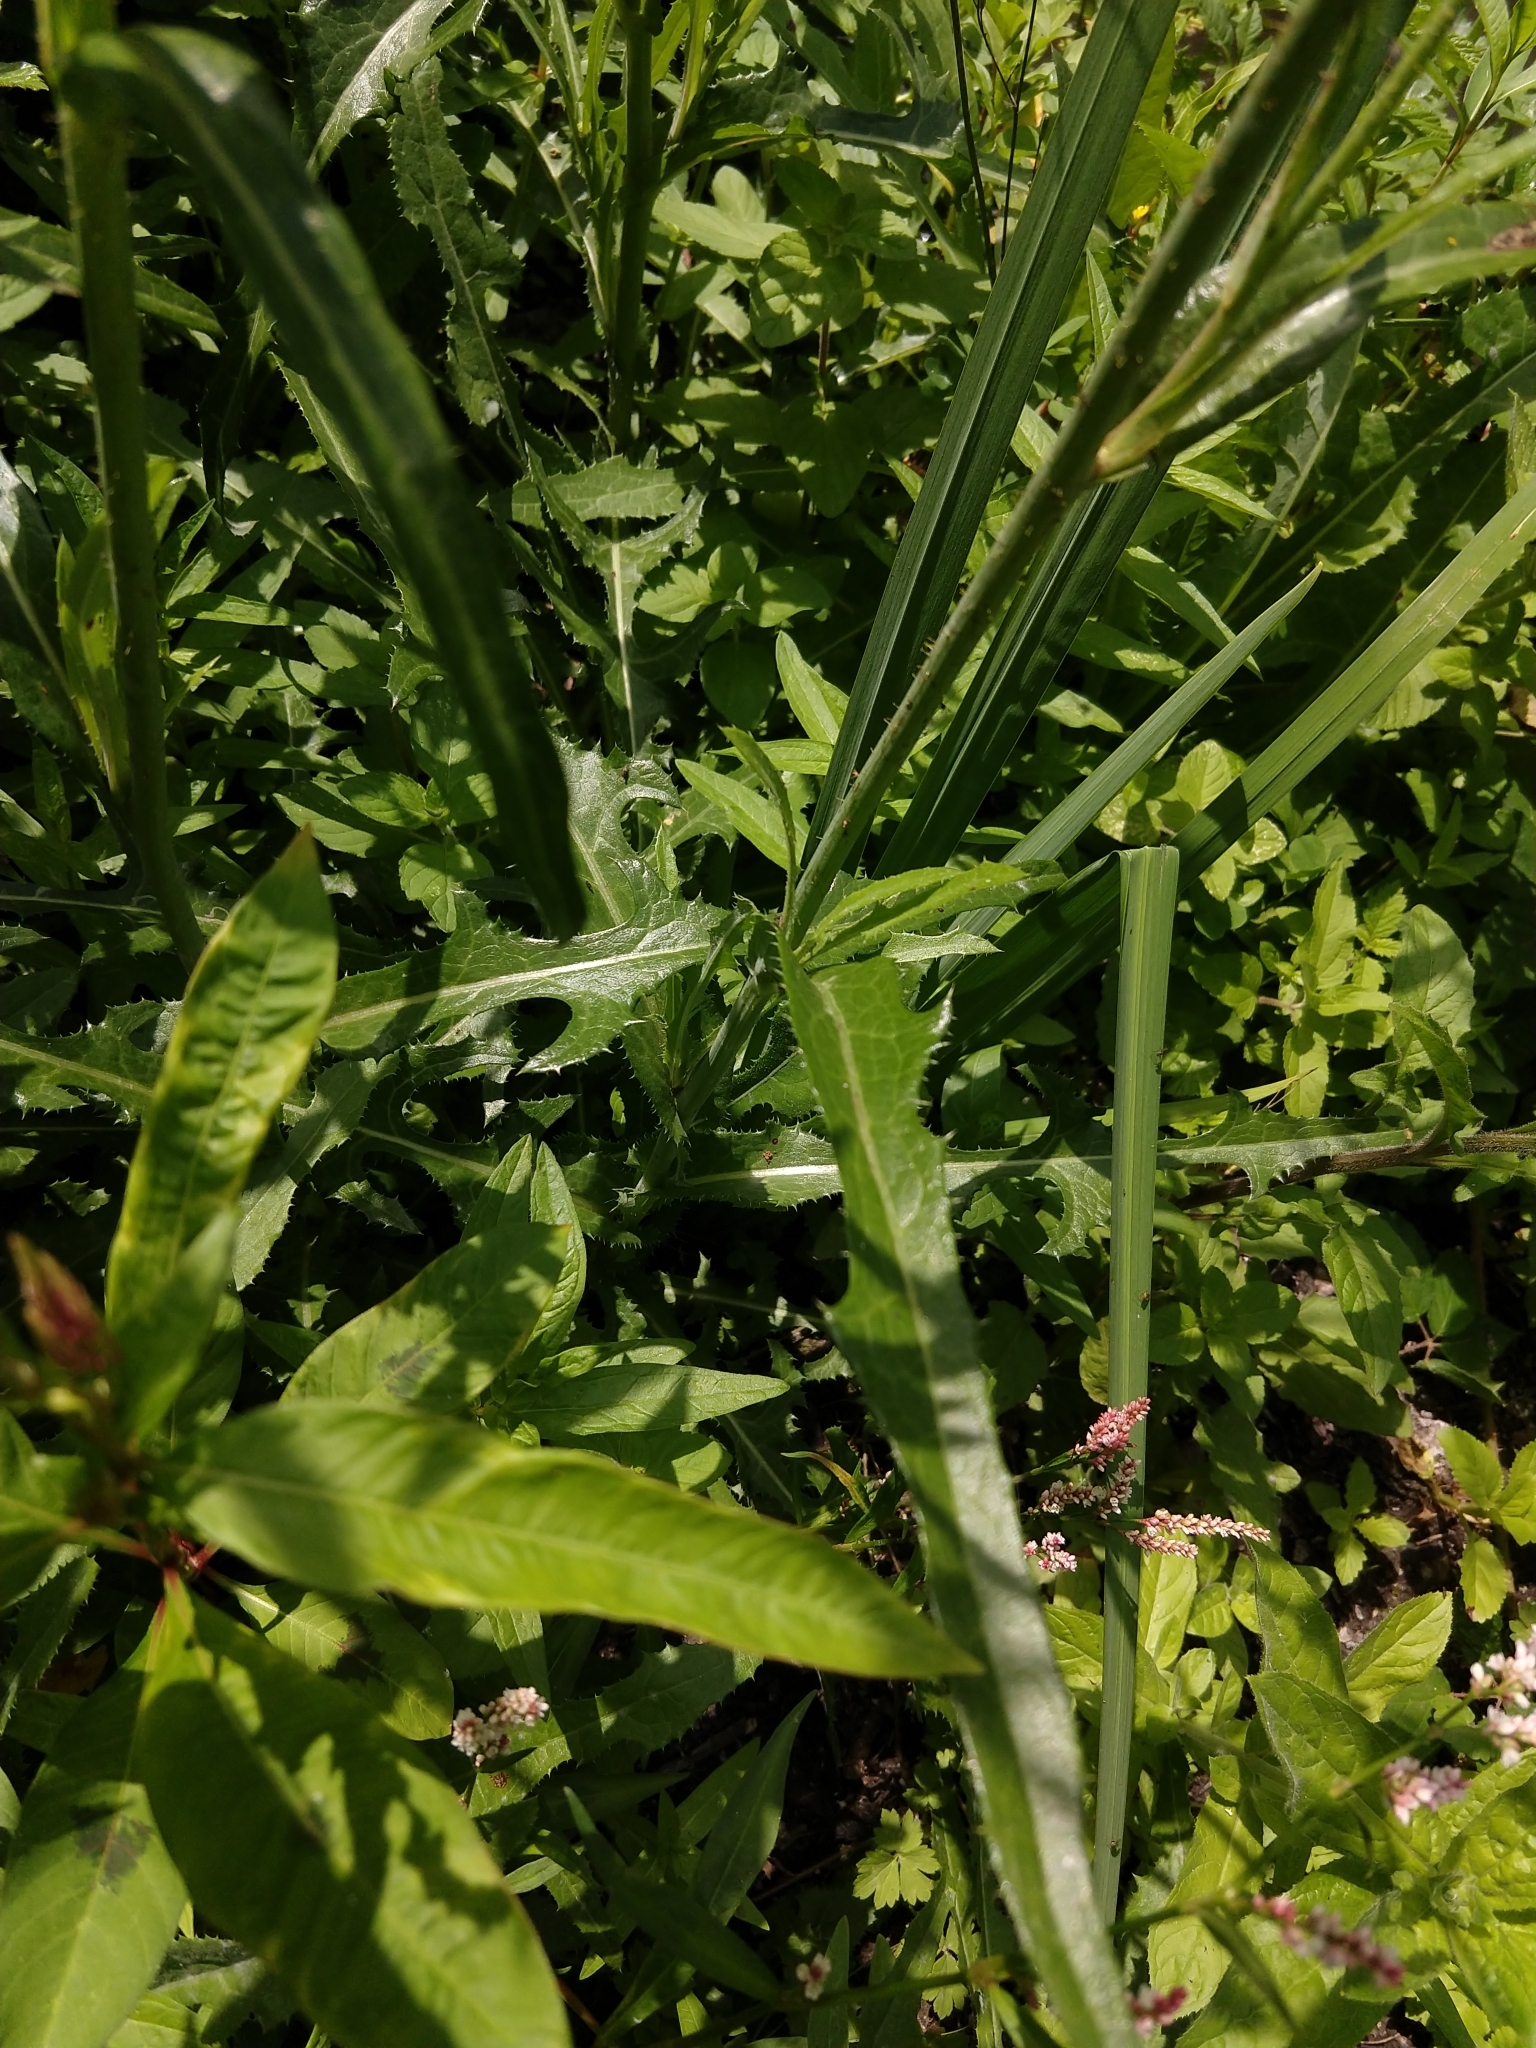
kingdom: Plantae
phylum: Tracheophyta
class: Magnoliopsida
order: Asterales
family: Asteraceae
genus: Sonchus
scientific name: Sonchus arvensis
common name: Perennial sow-thistle
